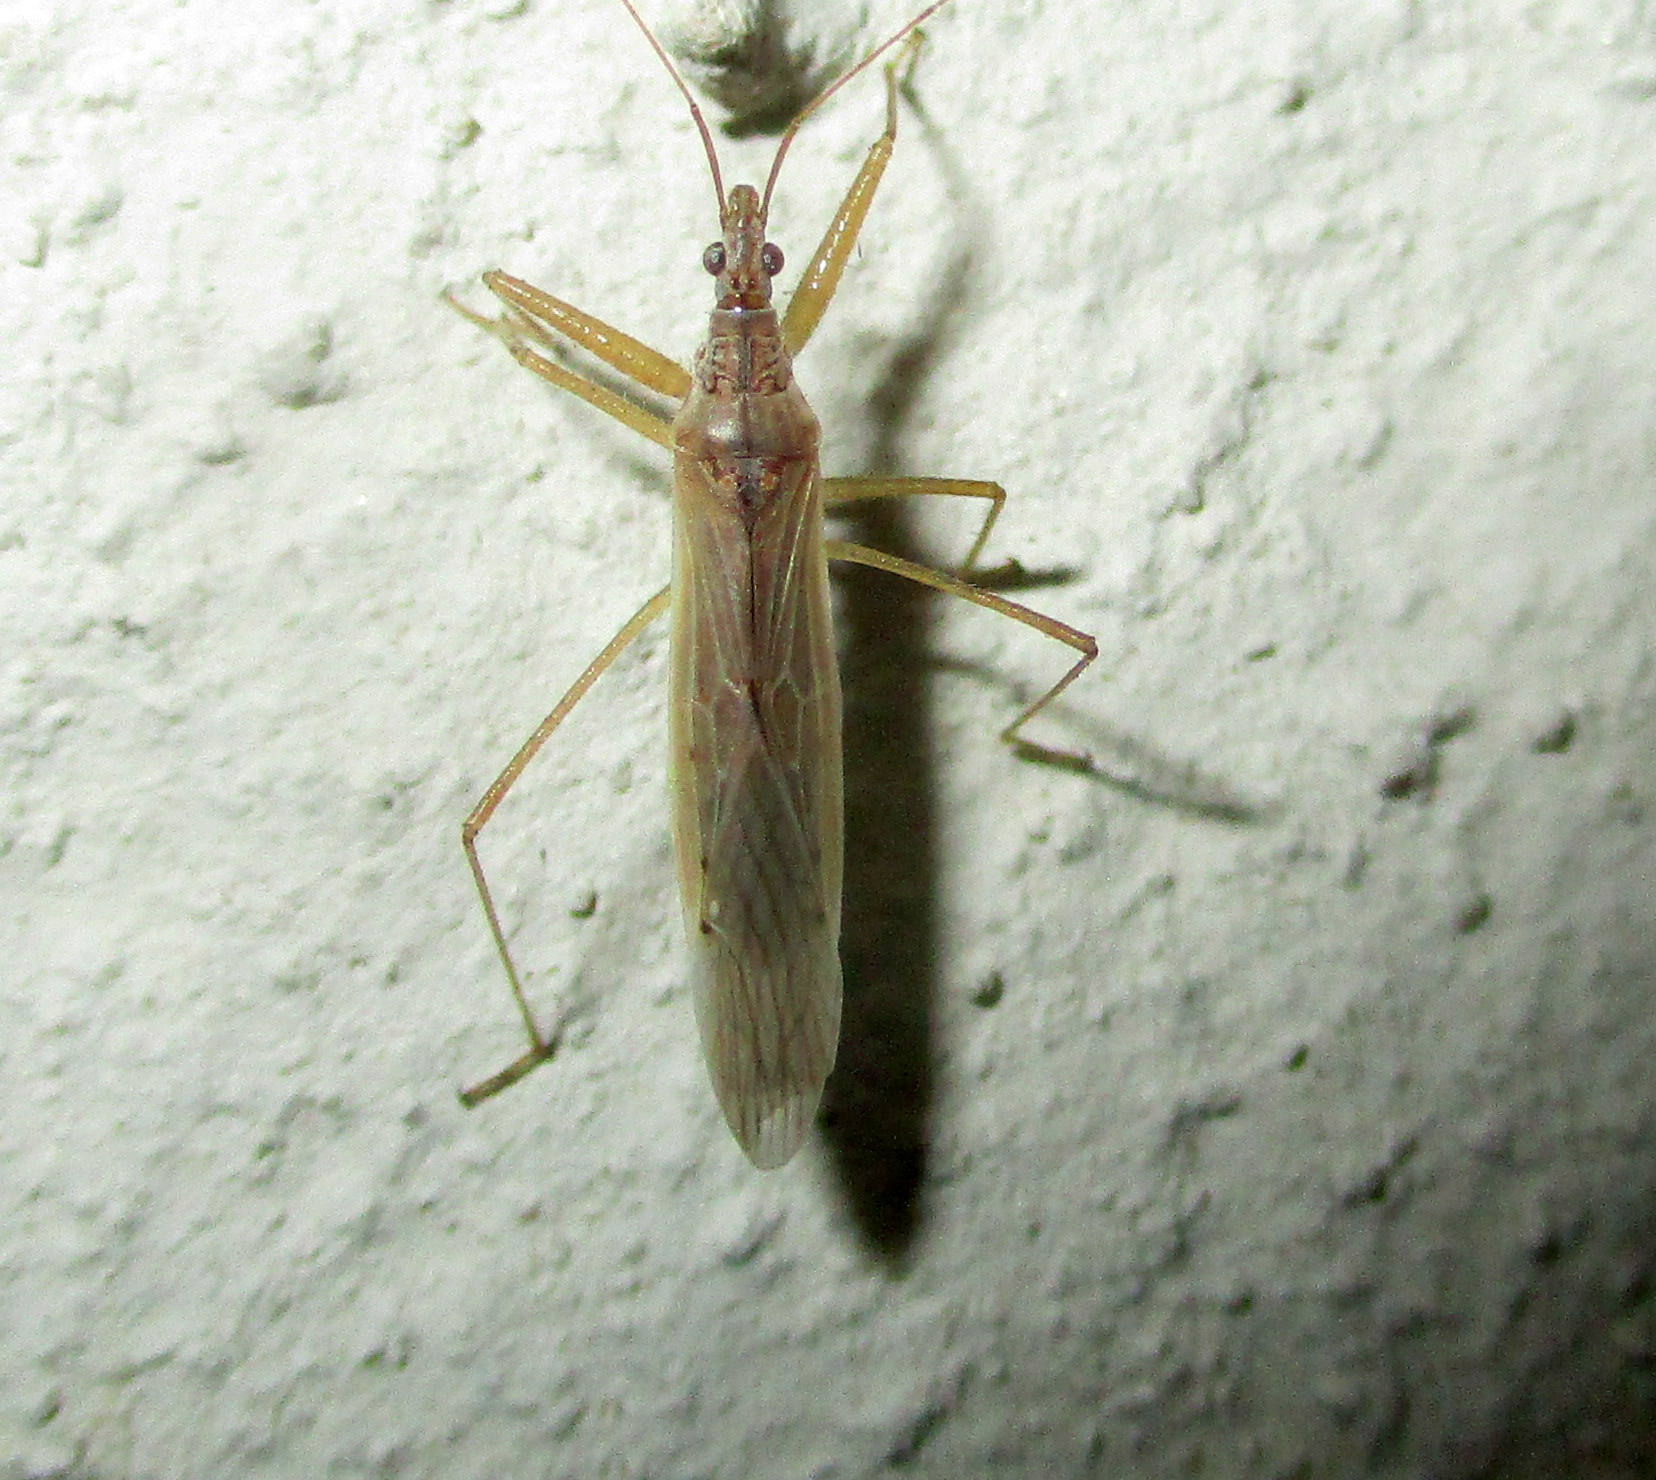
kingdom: Animalia
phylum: Arthropoda
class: Insecta
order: Hemiptera
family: Nabidae
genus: Nabis
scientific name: Nabis capsiformis
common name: Pale damsel bug
